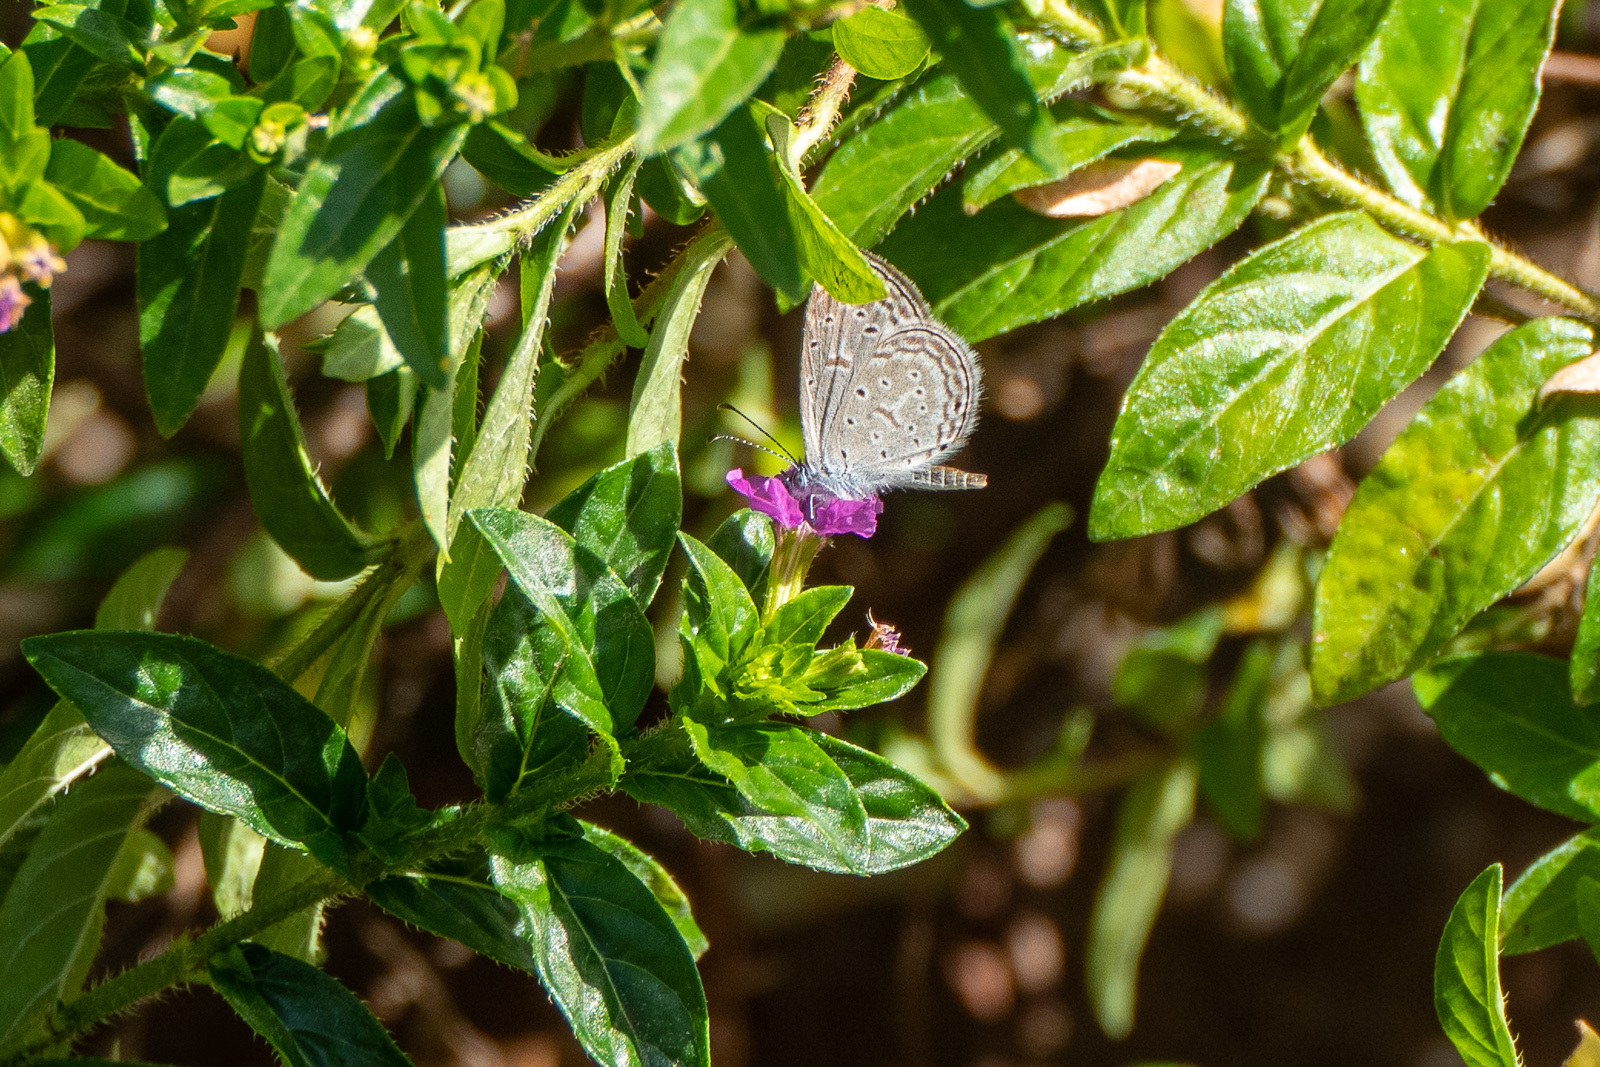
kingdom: Animalia
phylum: Arthropoda
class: Insecta
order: Lepidoptera
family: Lycaenidae
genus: Zizula
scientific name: Zizula hylax
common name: Gaika blue
